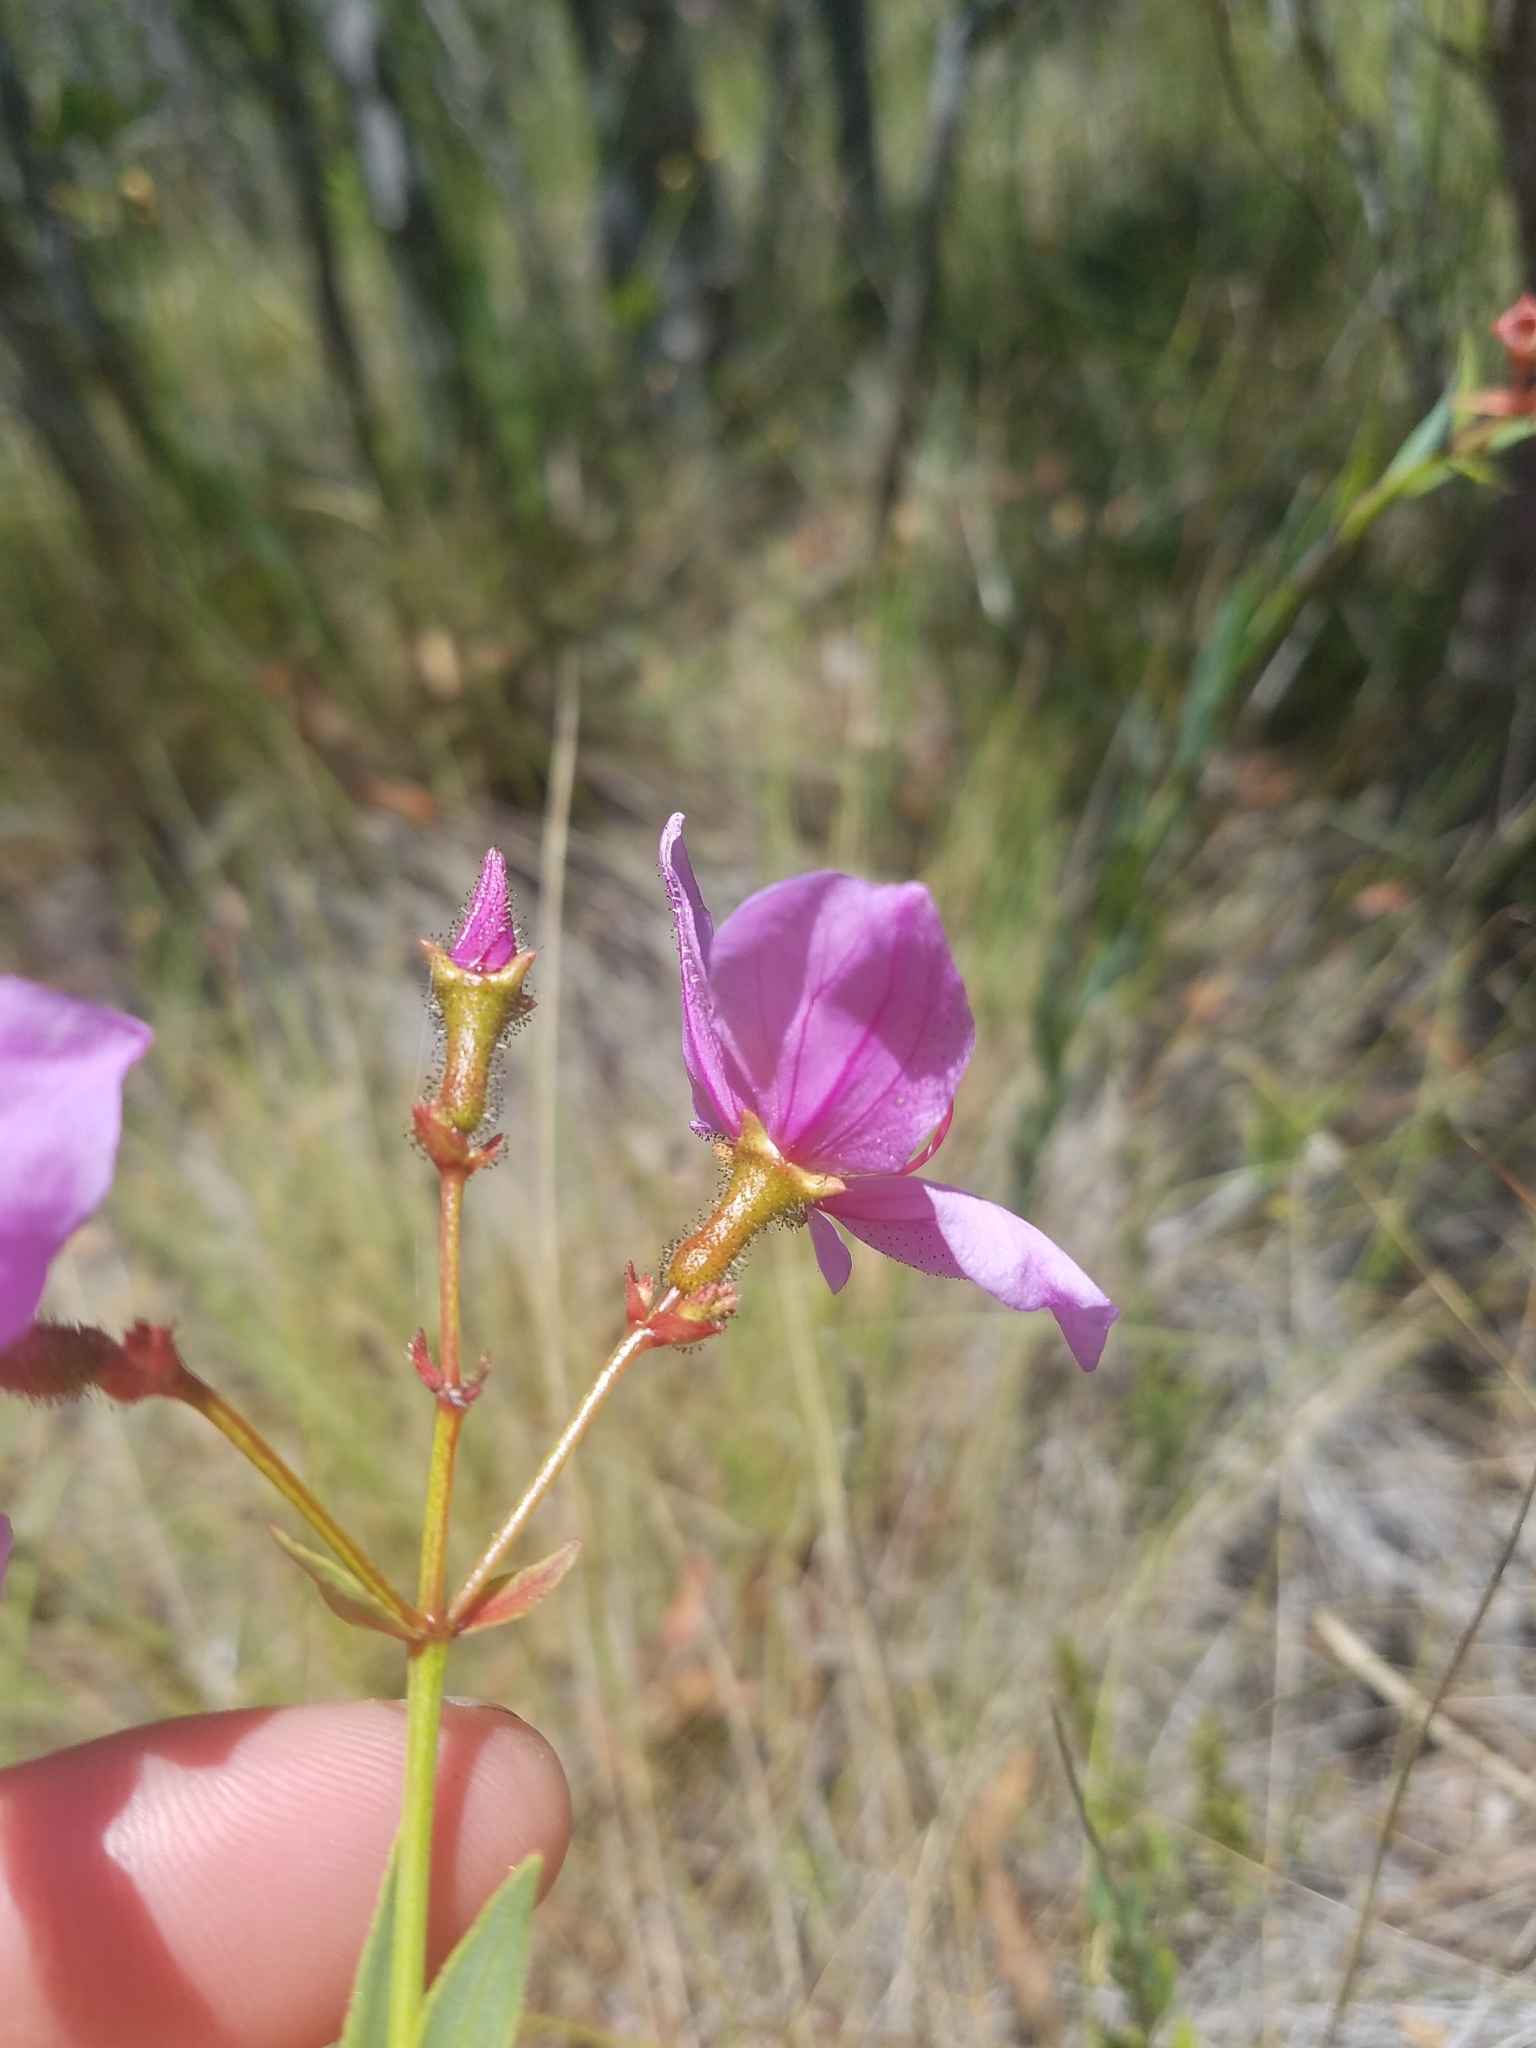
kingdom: Plantae
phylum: Tracheophyta
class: Magnoliopsida
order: Myrtales
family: Melastomataceae
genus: Rhexia
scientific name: Rhexia alifanus
